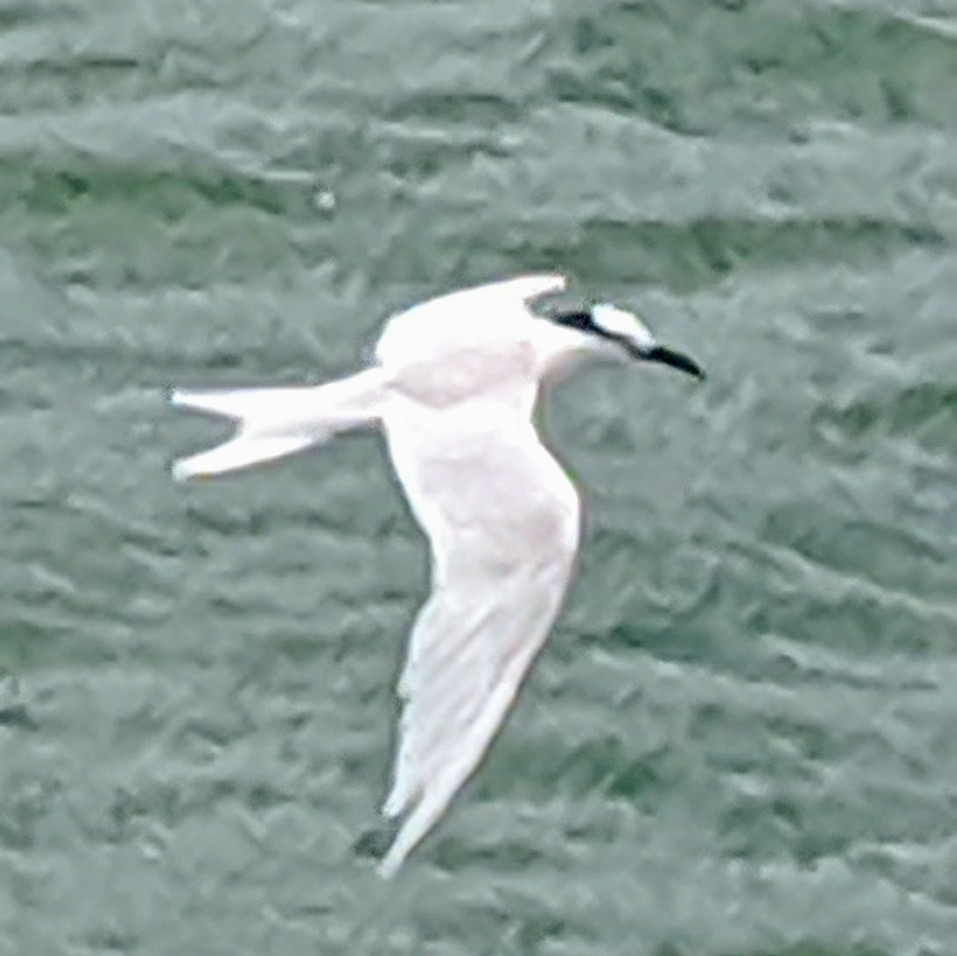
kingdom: Animalia
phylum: Chordata
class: Aves
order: Charadriiformes
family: Laridae
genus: Sterna
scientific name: Sterna sumatrana
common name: Black-naped tern
